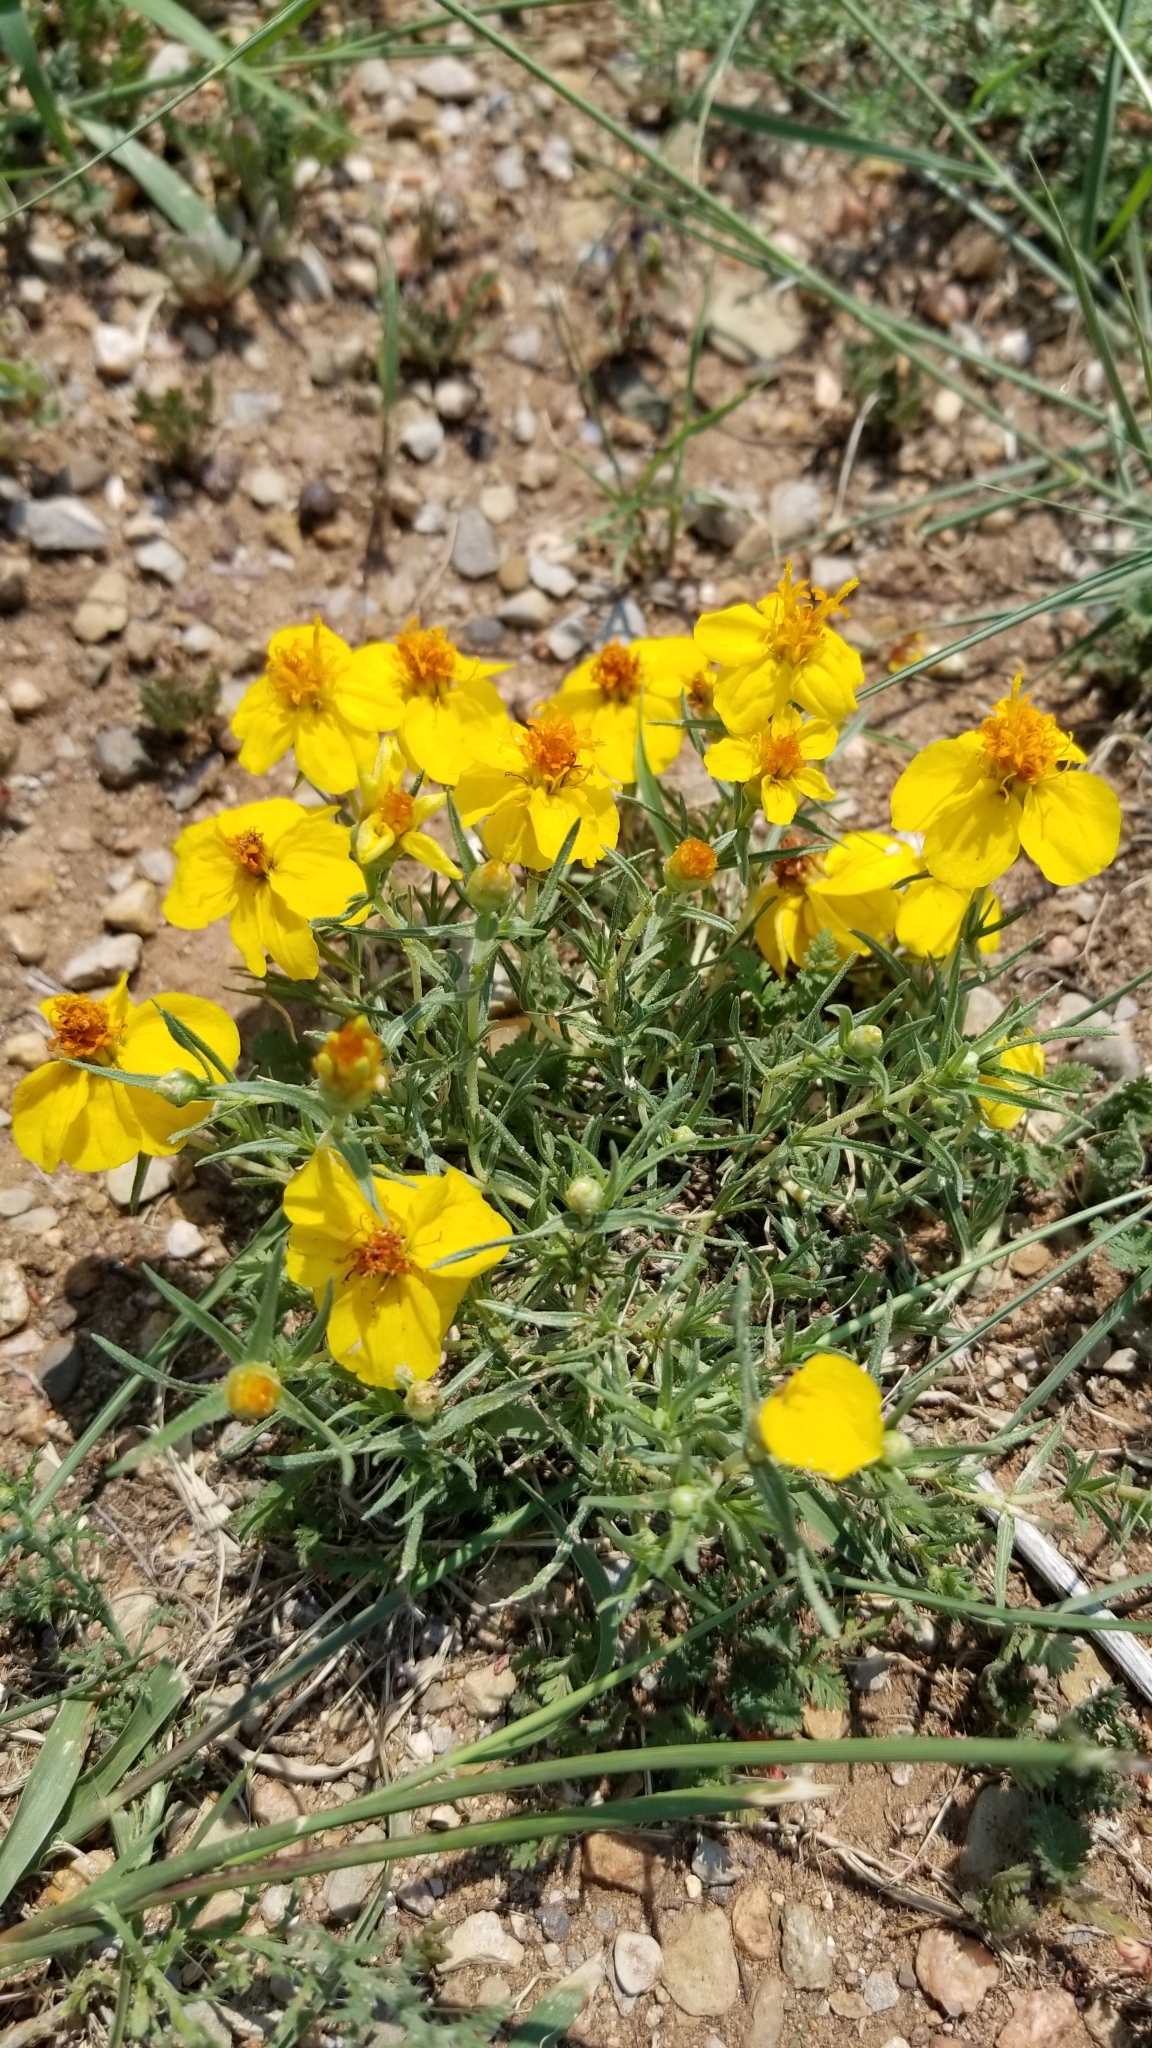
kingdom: Plantae
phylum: Tracheophyta
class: Magnoliopsida
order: Asterales
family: Asteraceae
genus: Zinnia
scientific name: Zinnia grandiflora
